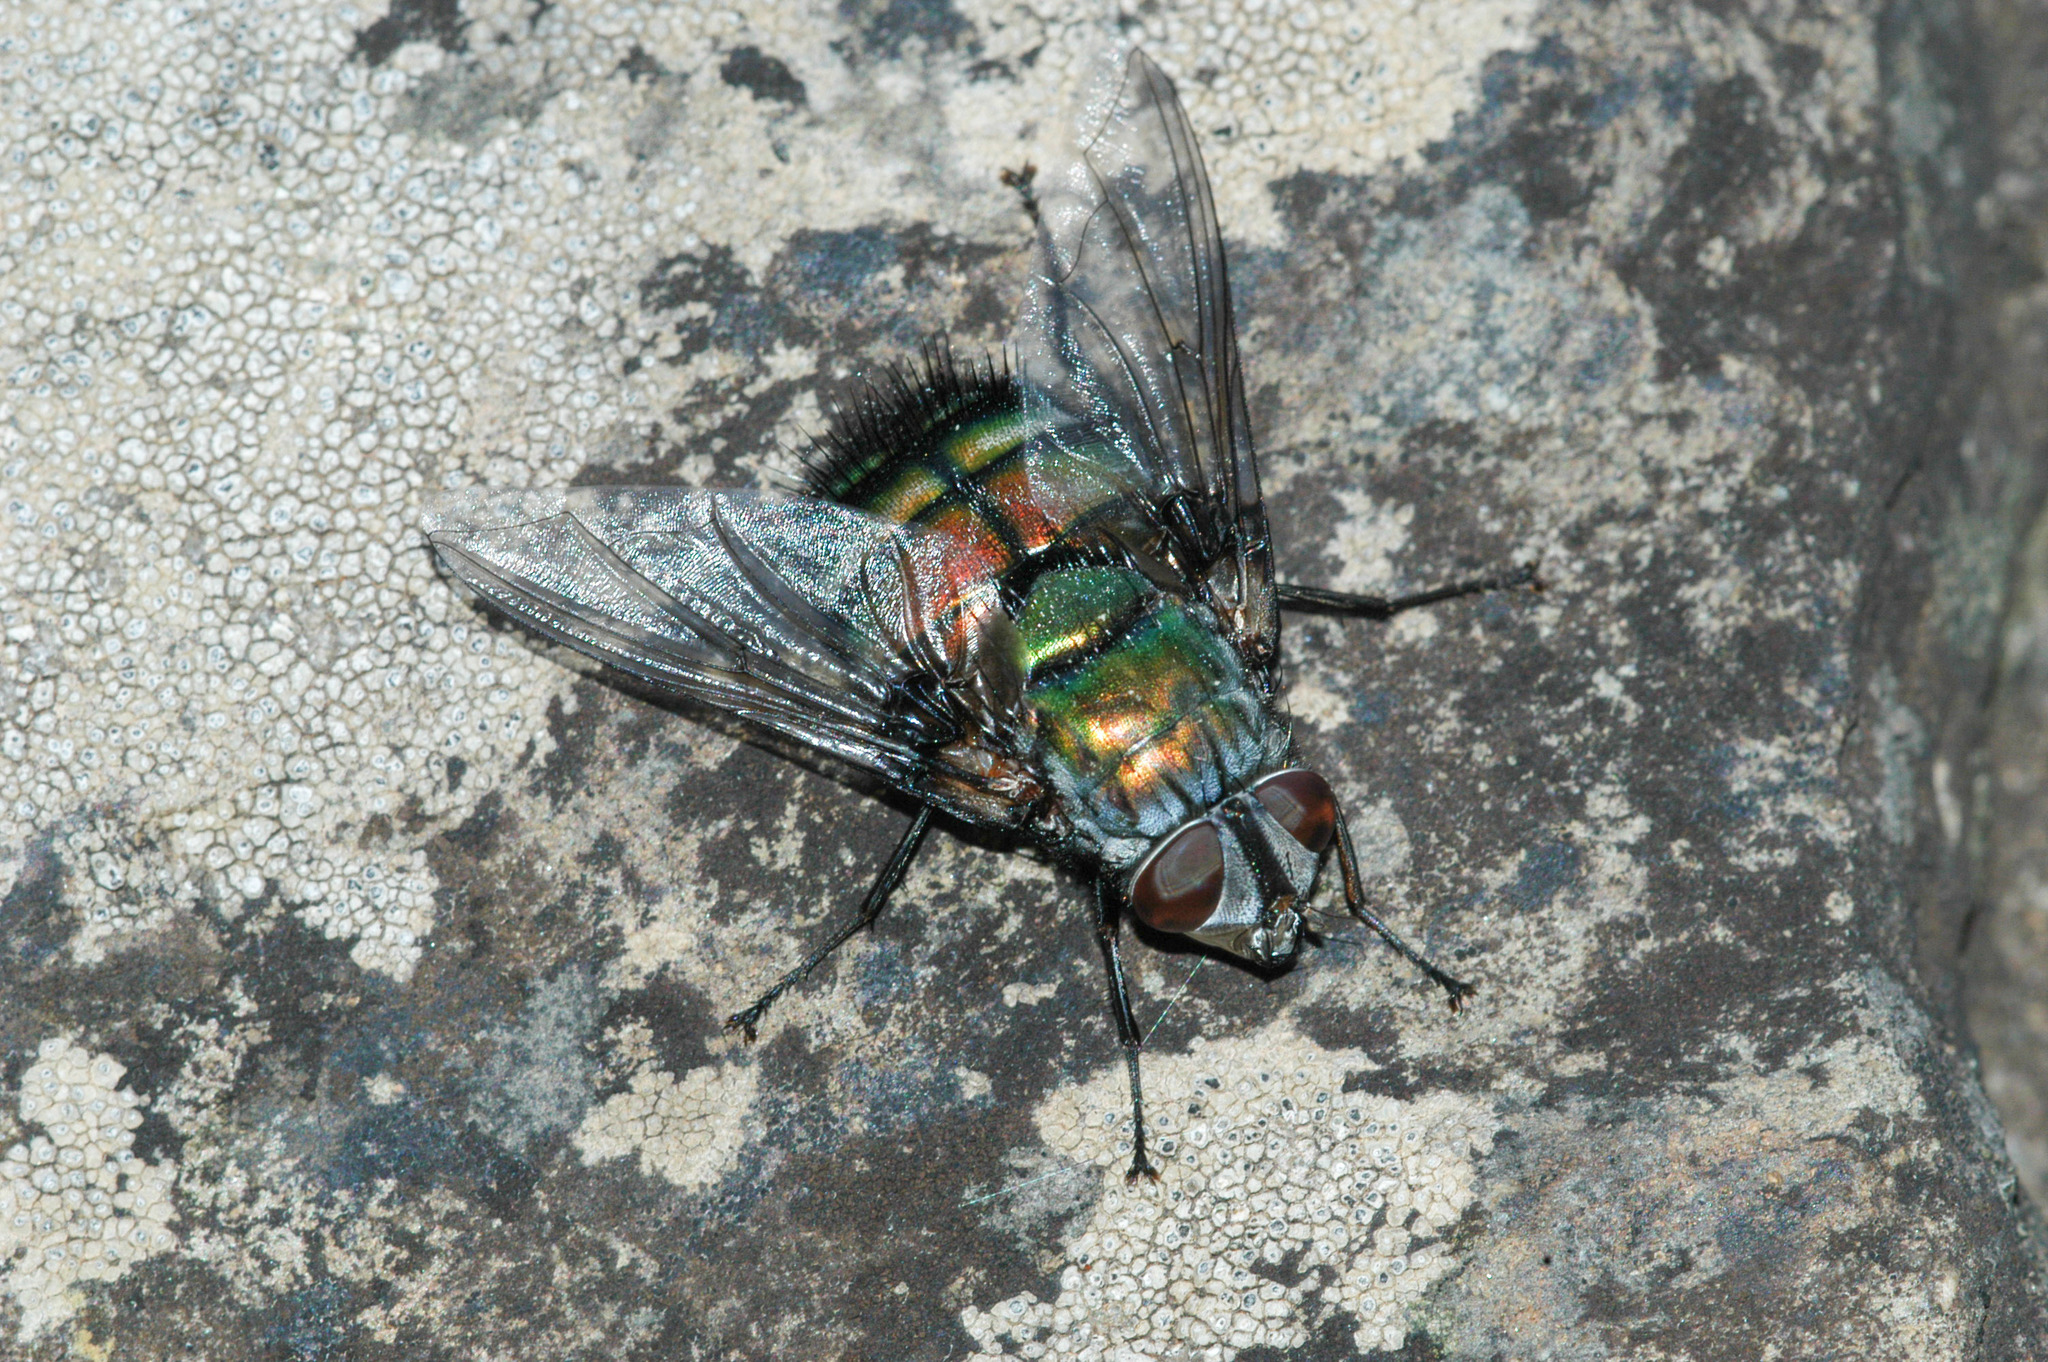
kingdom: Animalia
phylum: Arthropoda
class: Insecta
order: Diptera
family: Tachinidae
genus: Rutilia
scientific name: Rutilia
